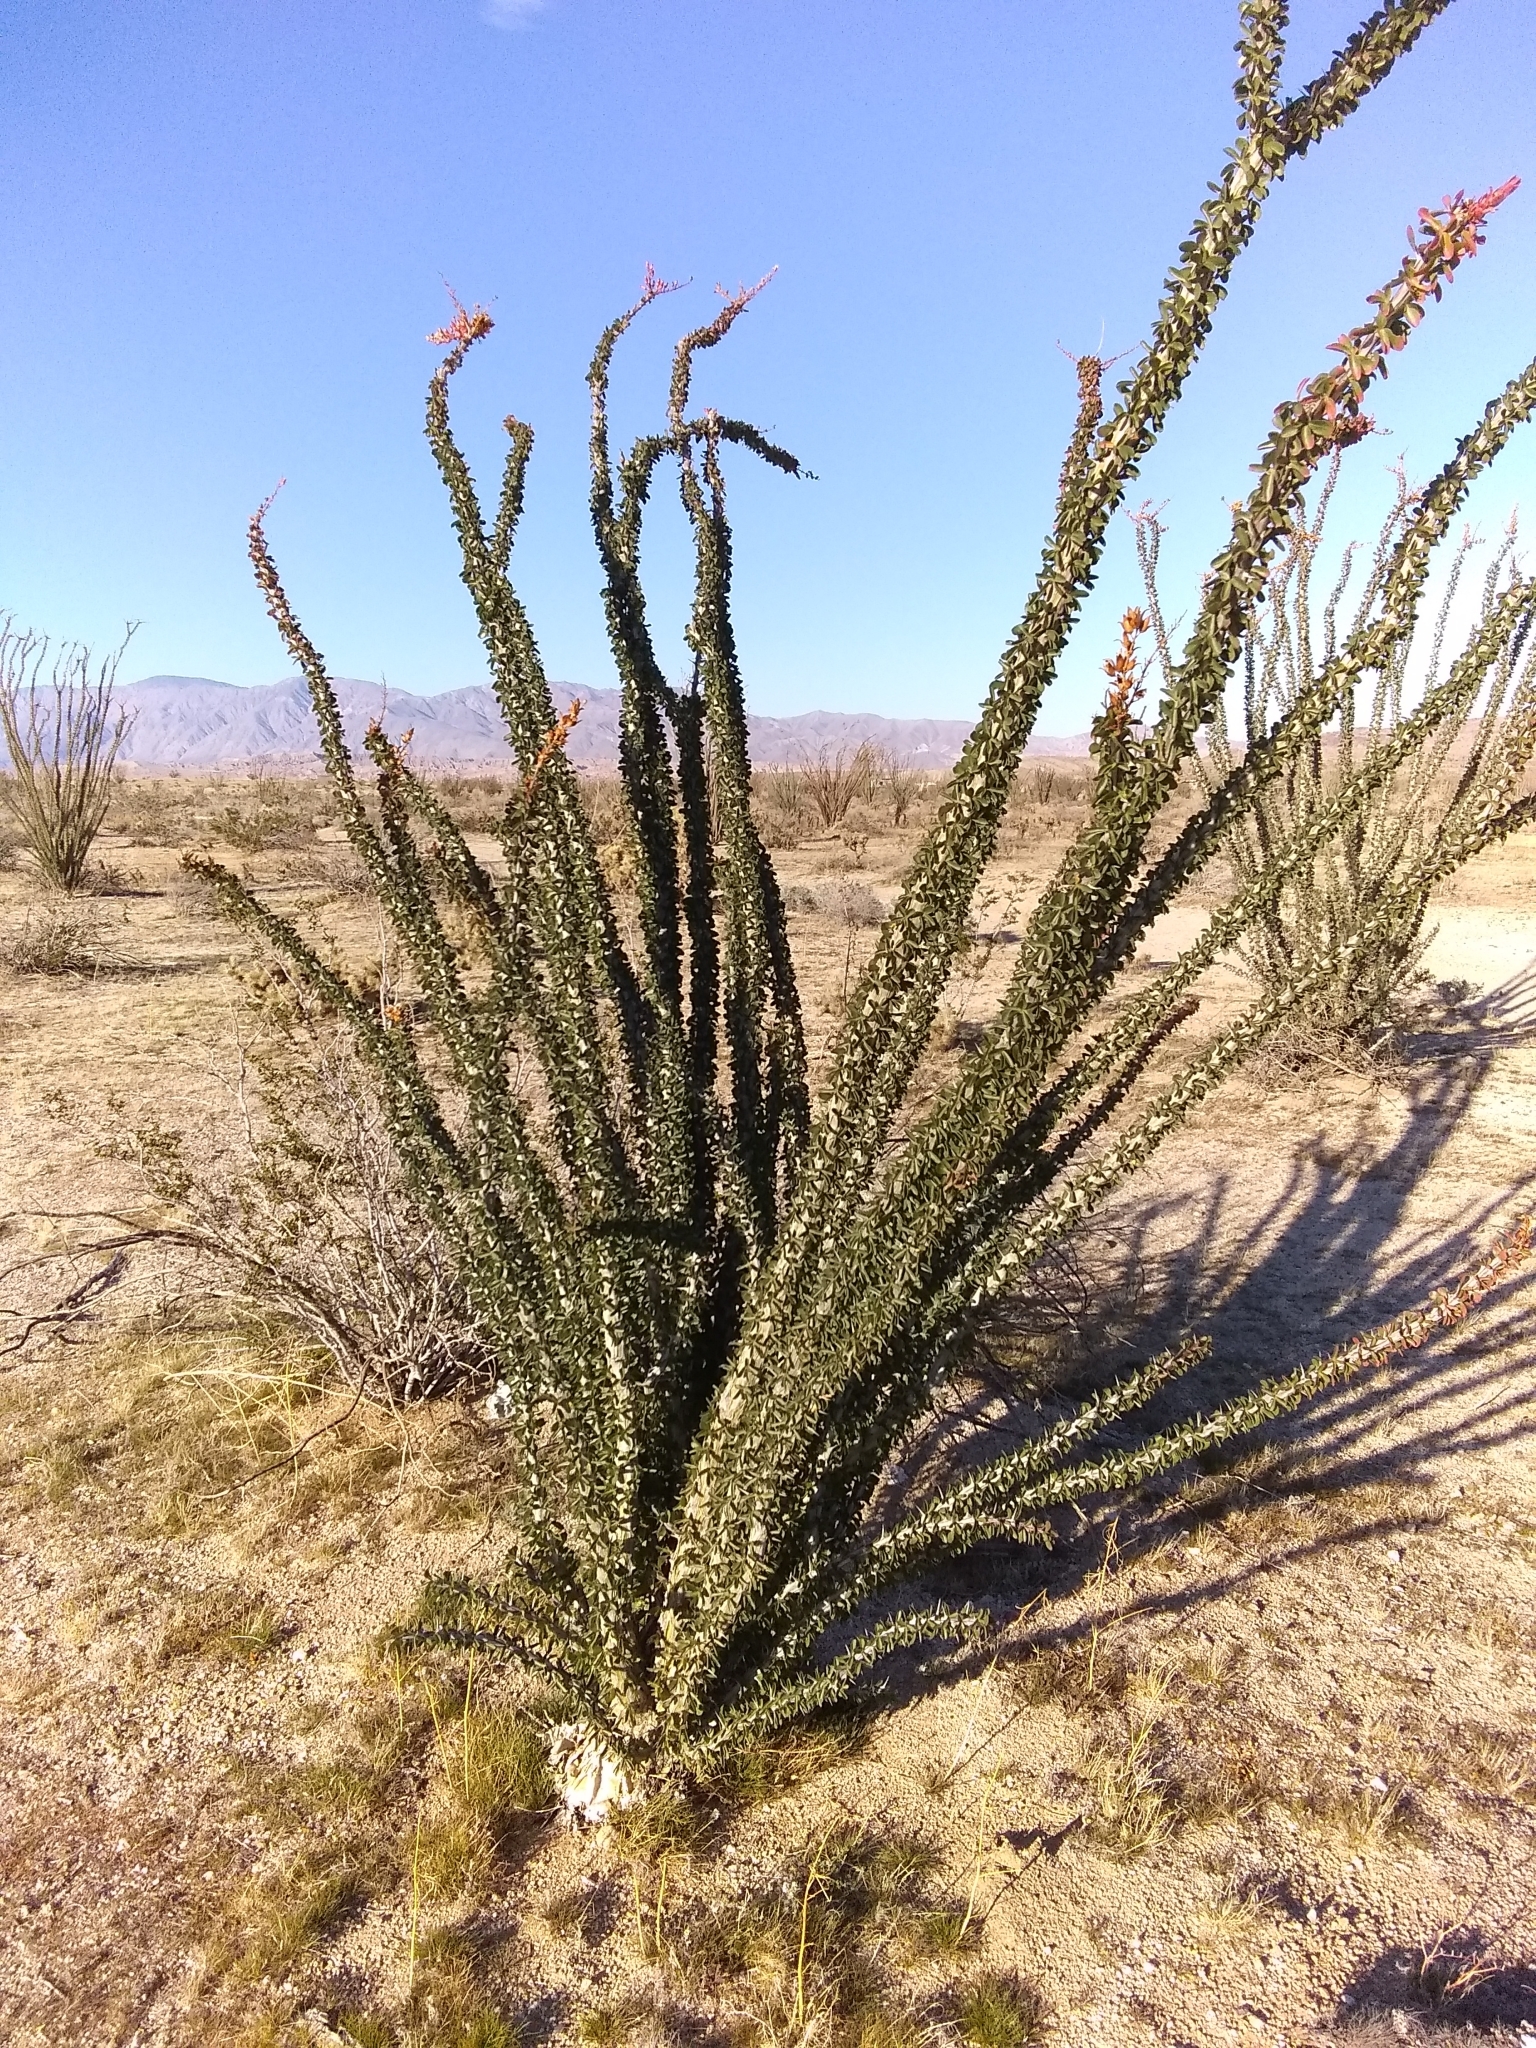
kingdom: Plantae
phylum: Tracheophyta
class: Magnoliopsida
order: Ericales
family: Fouquieriaceae
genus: Fouquieria
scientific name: Fouquieria splendens
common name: Vine-cactus
